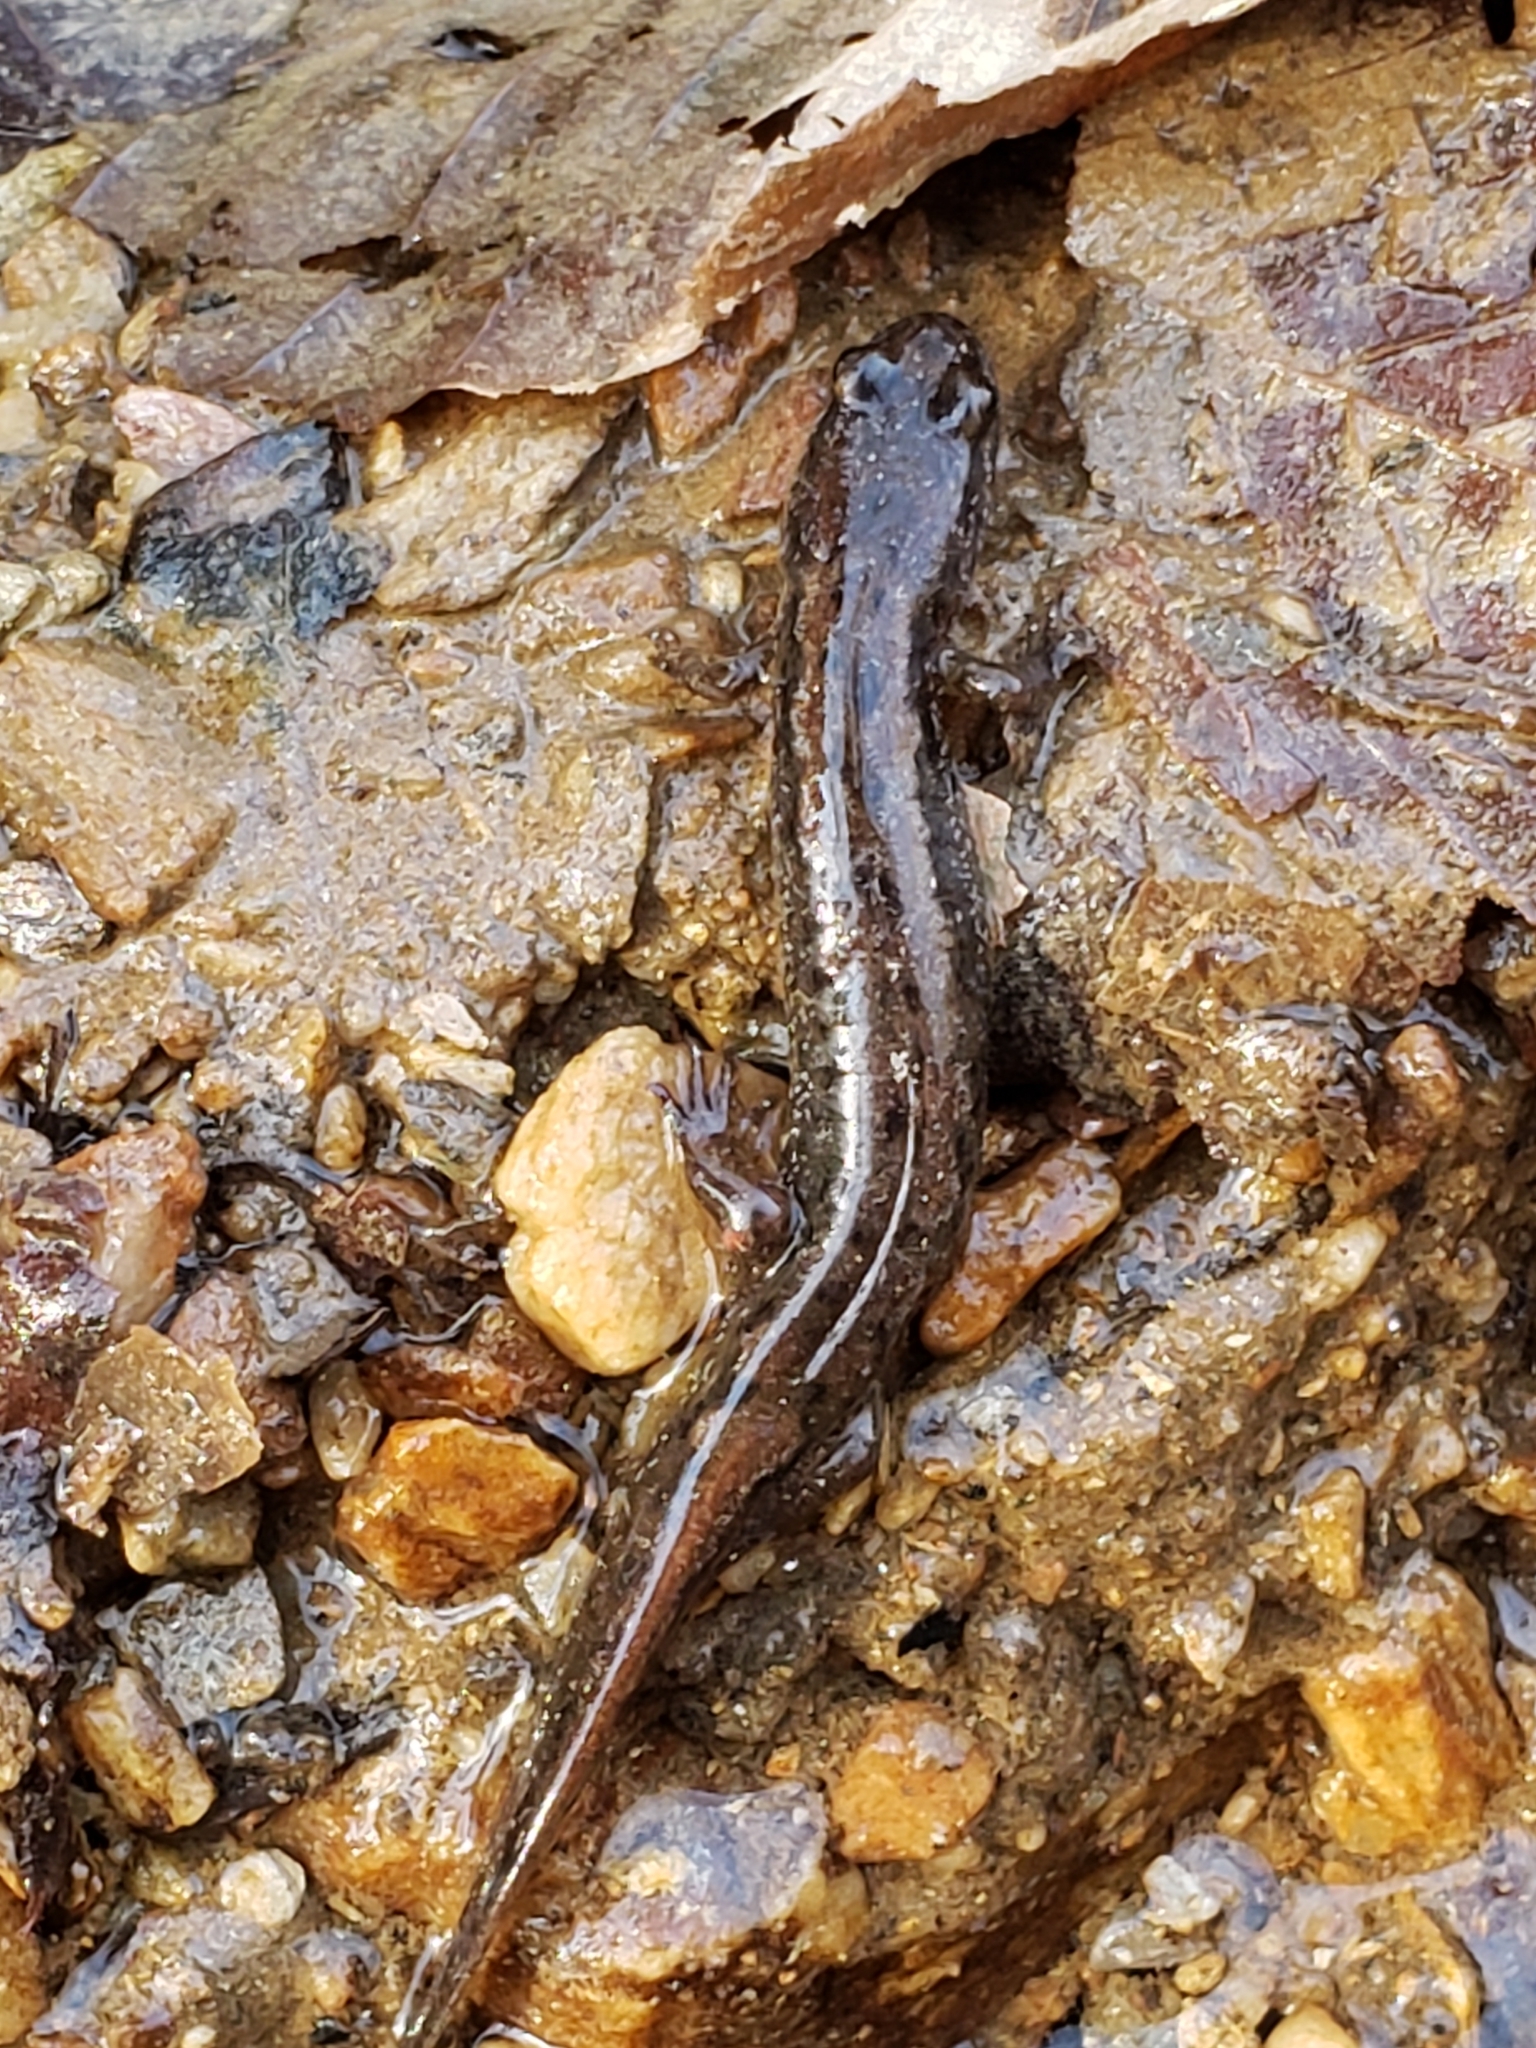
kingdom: Animalia
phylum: Chordata
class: Amphibia
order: Caudata
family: Plethodontidae
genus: Desmognathus
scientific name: Desmognathus fuscus
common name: Northern dusky salamander
